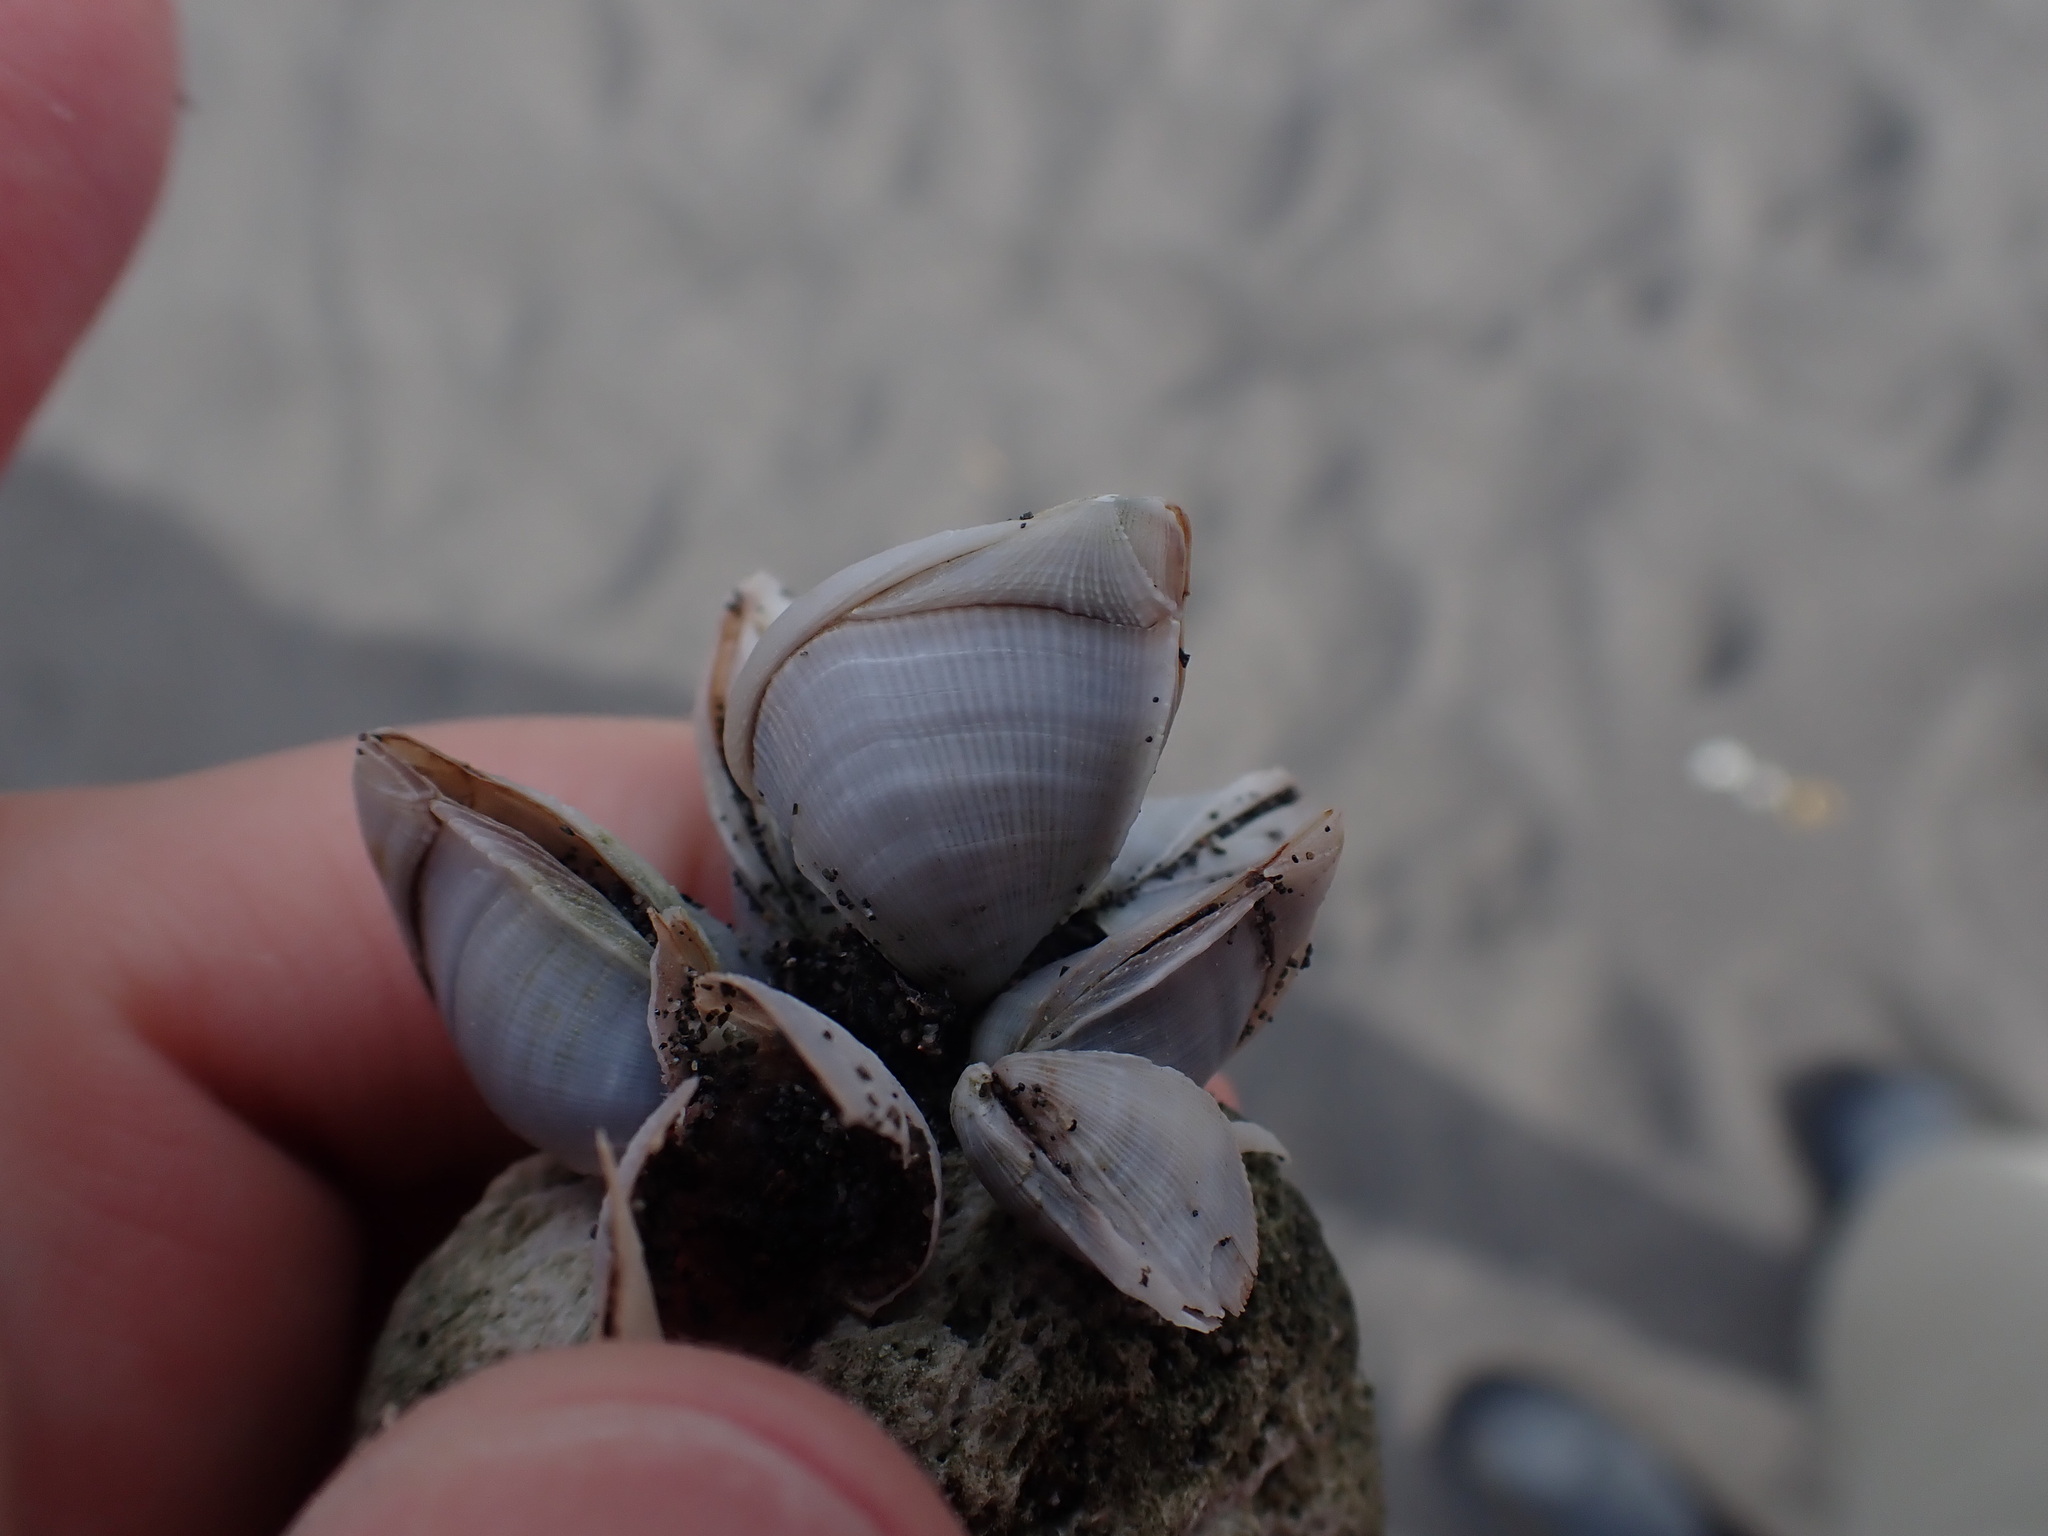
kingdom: Animalia
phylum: Arthropoda
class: Maxillopoda
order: Pedunculata
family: Lepadidae
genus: Lepas
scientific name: Lepas pectinata
